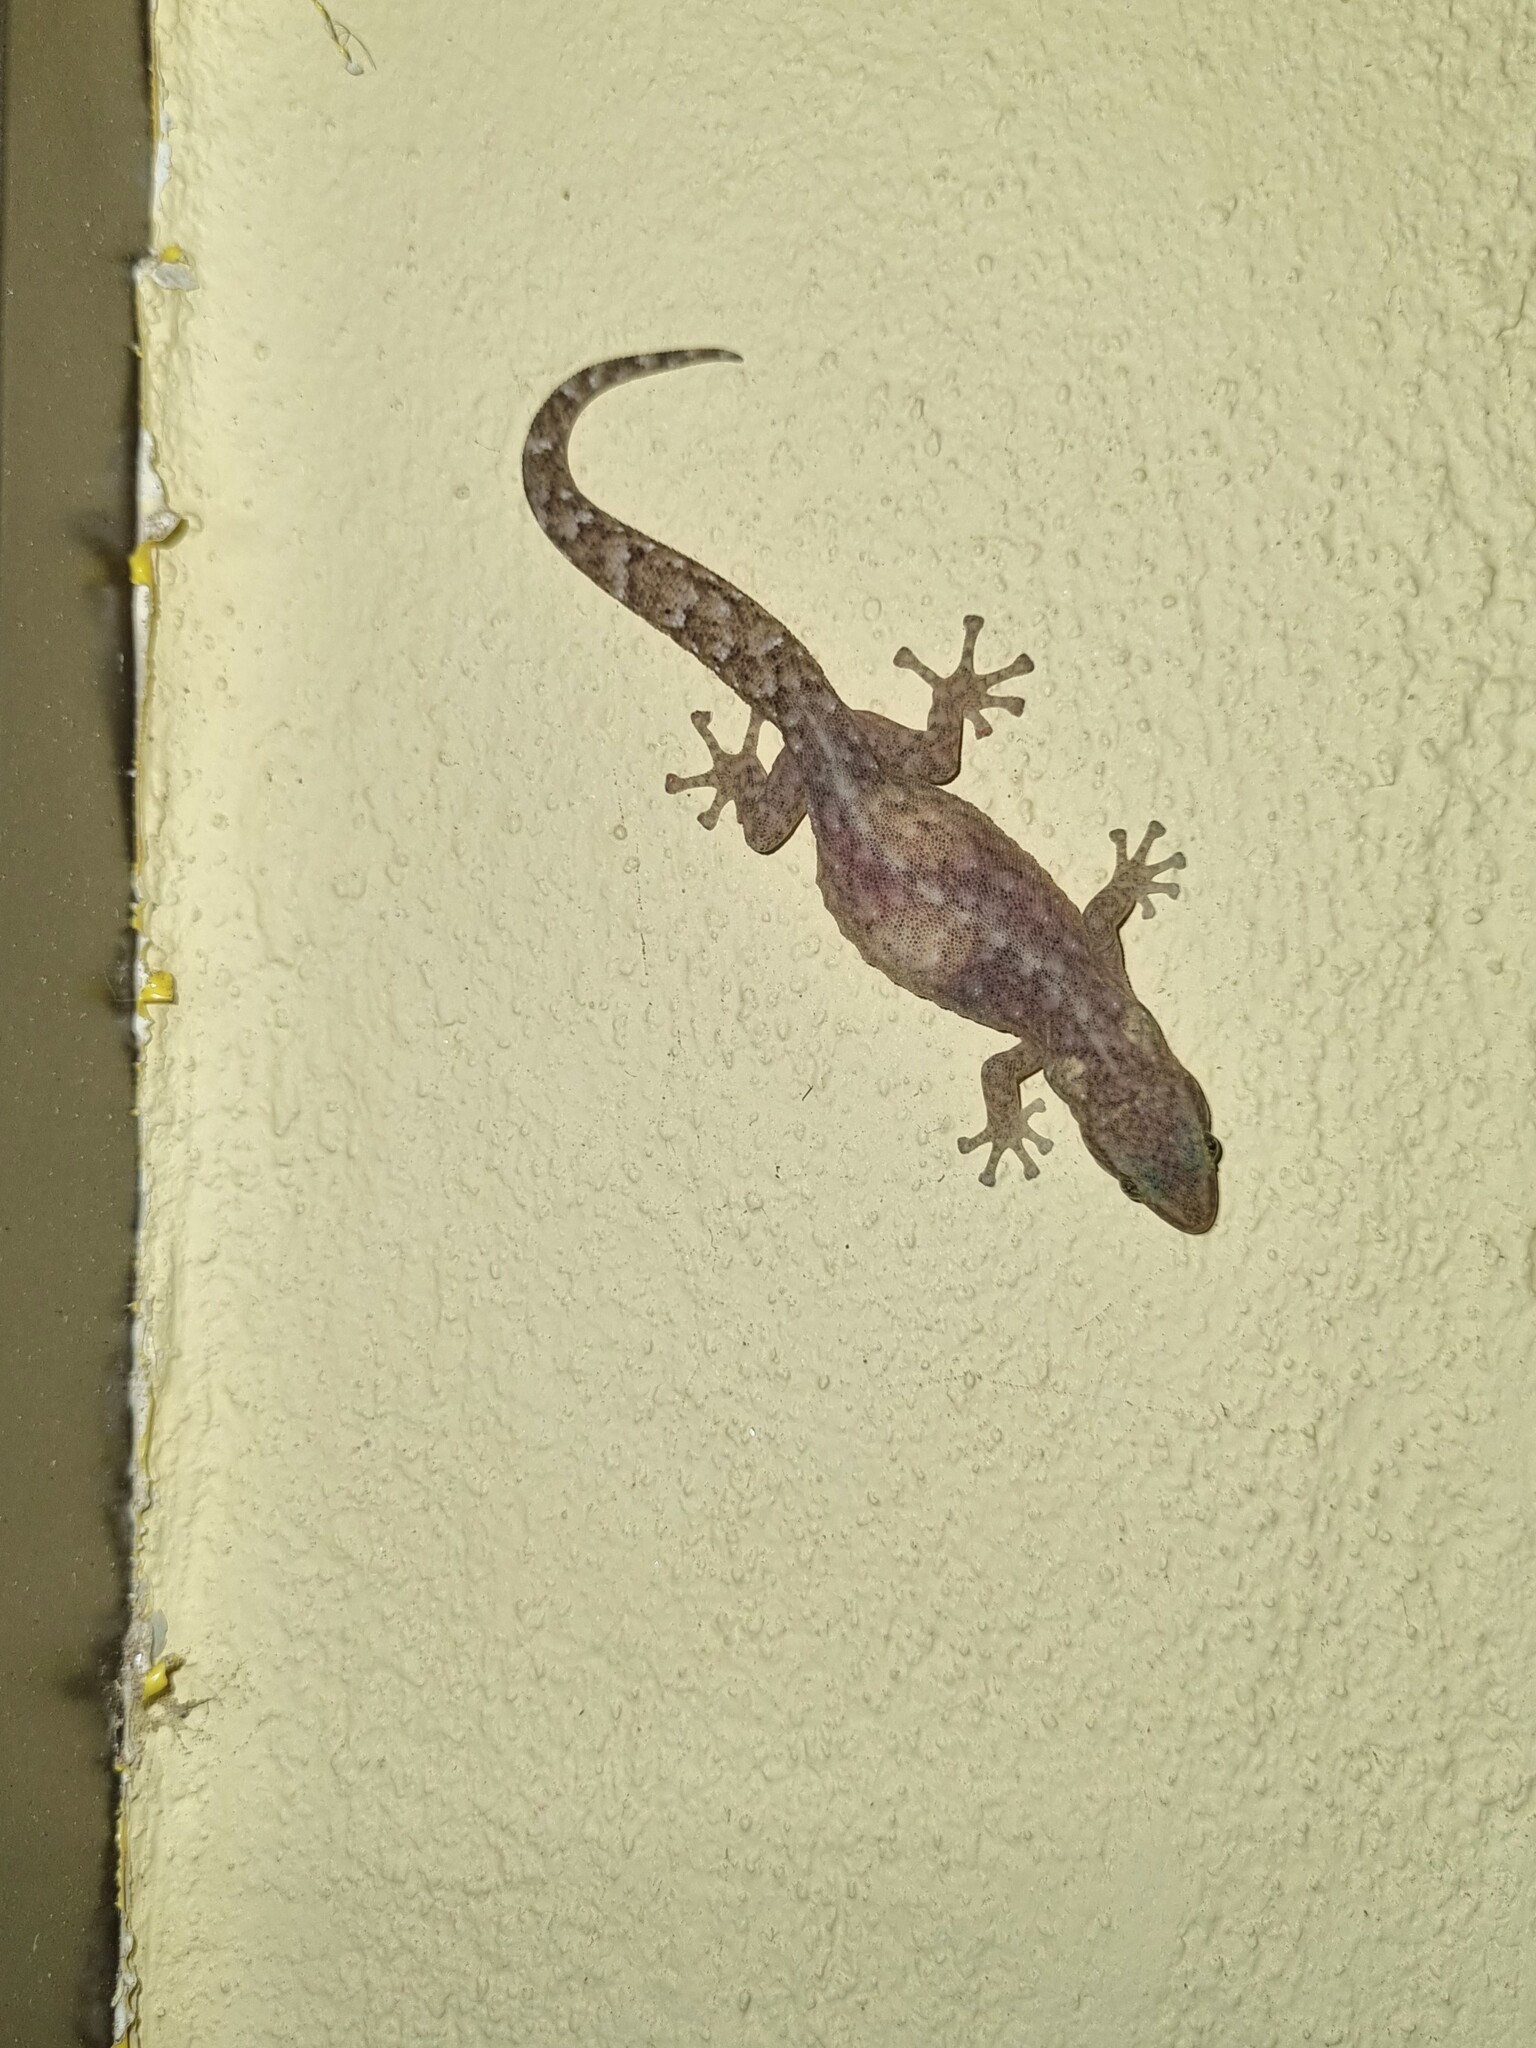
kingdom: Animalia
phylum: Chordata
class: Squamata
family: Gekkonidae
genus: Afrogecko
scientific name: Afrogecko porphyreus
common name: Marbled leaf-toed gecko
